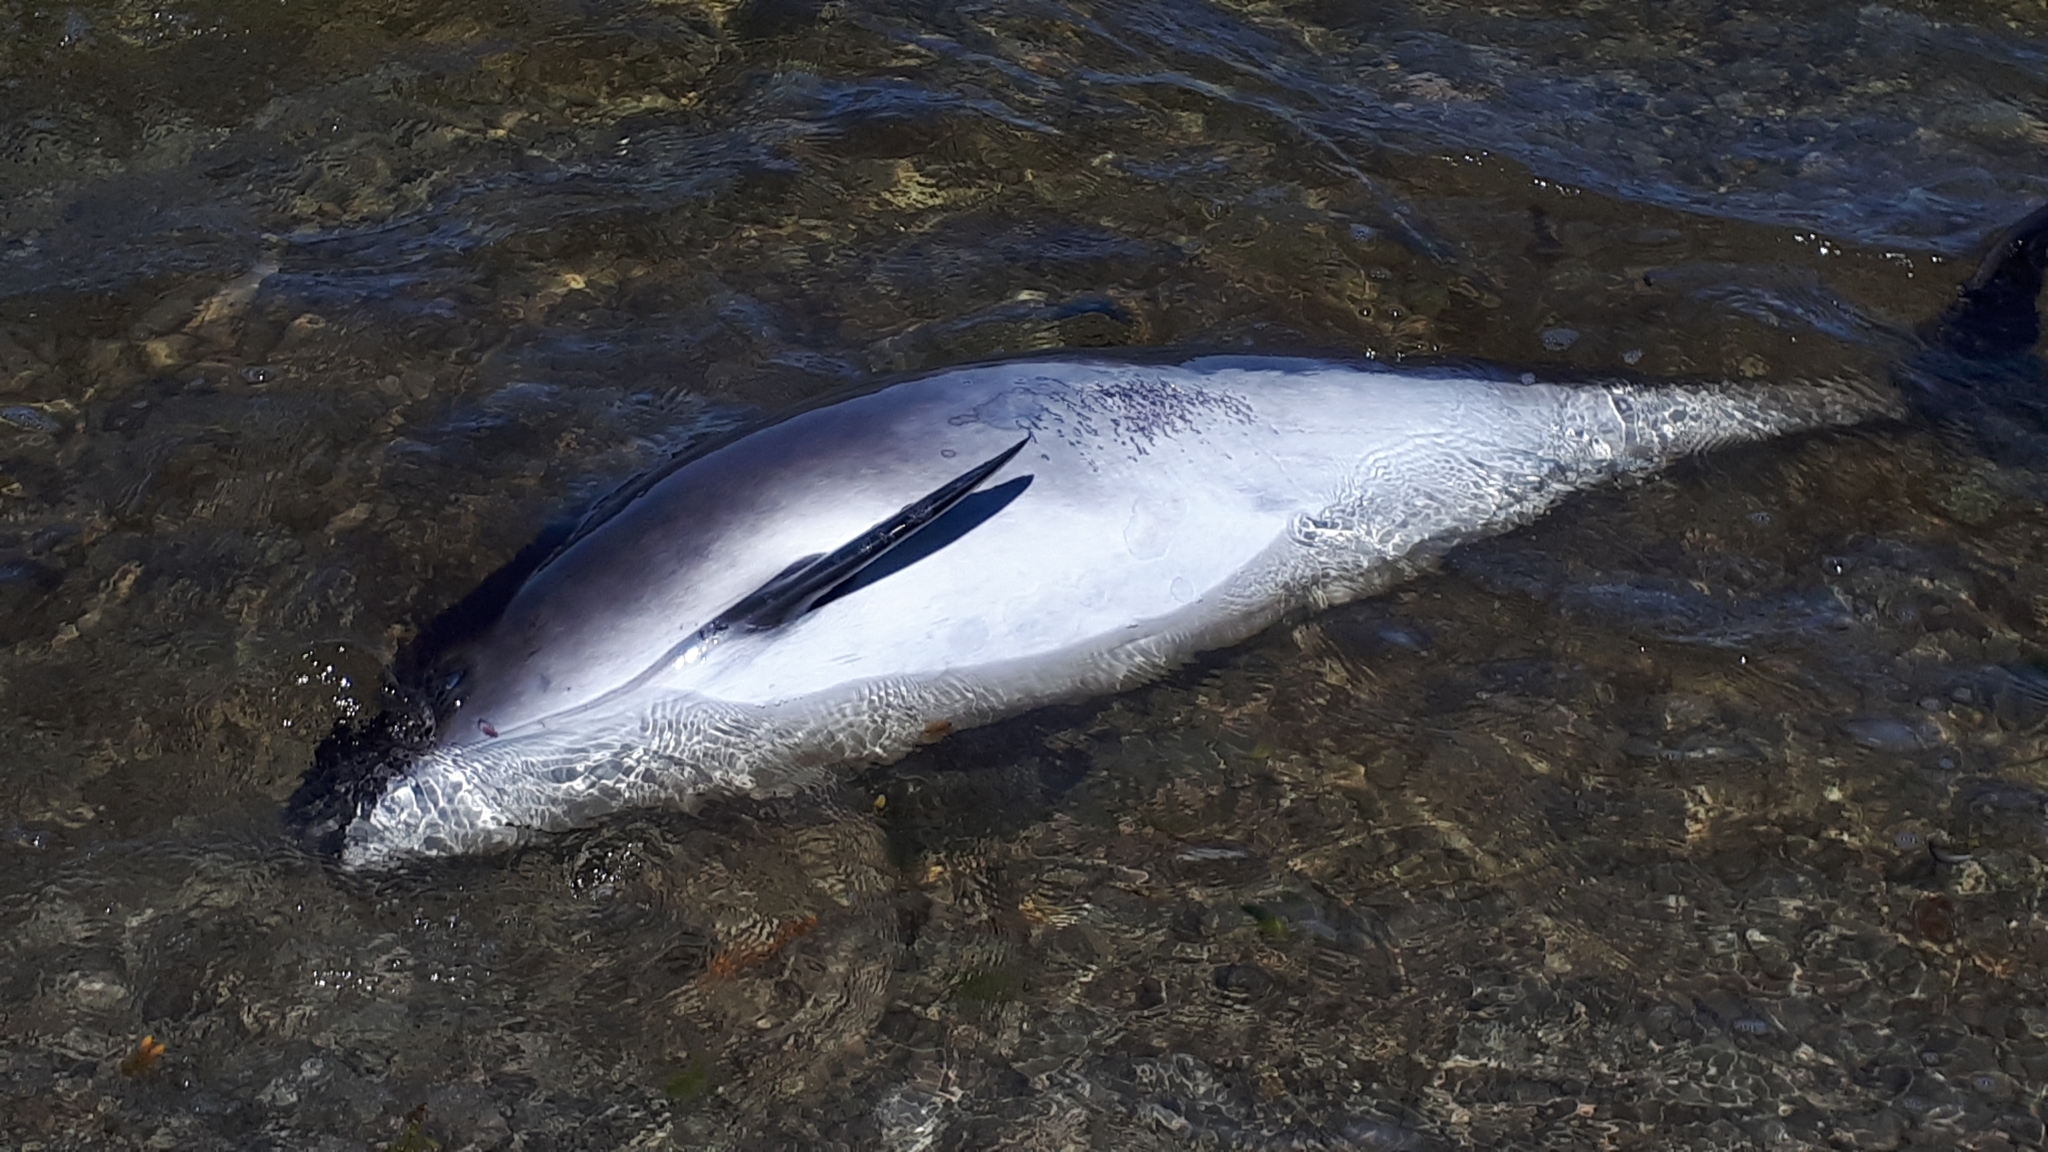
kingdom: Animalia
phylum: Chordata
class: Mammalia
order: Cetacea
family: Phocoenidae
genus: Phocoena
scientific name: Phocoena phocoena
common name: Harbor porpoise
